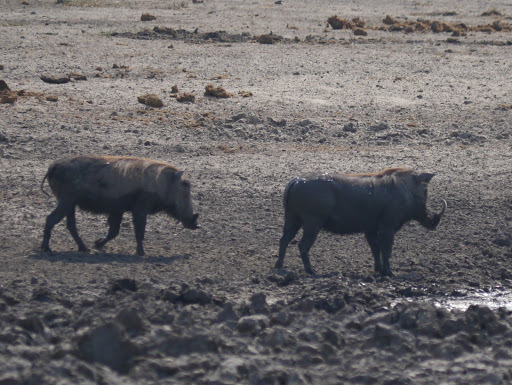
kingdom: Animalia
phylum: Chordata
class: Mammalia
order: Artiodactyla
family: Suidae
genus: Phacochoerus
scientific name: Phacochoerus africanus
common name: Common warthog
